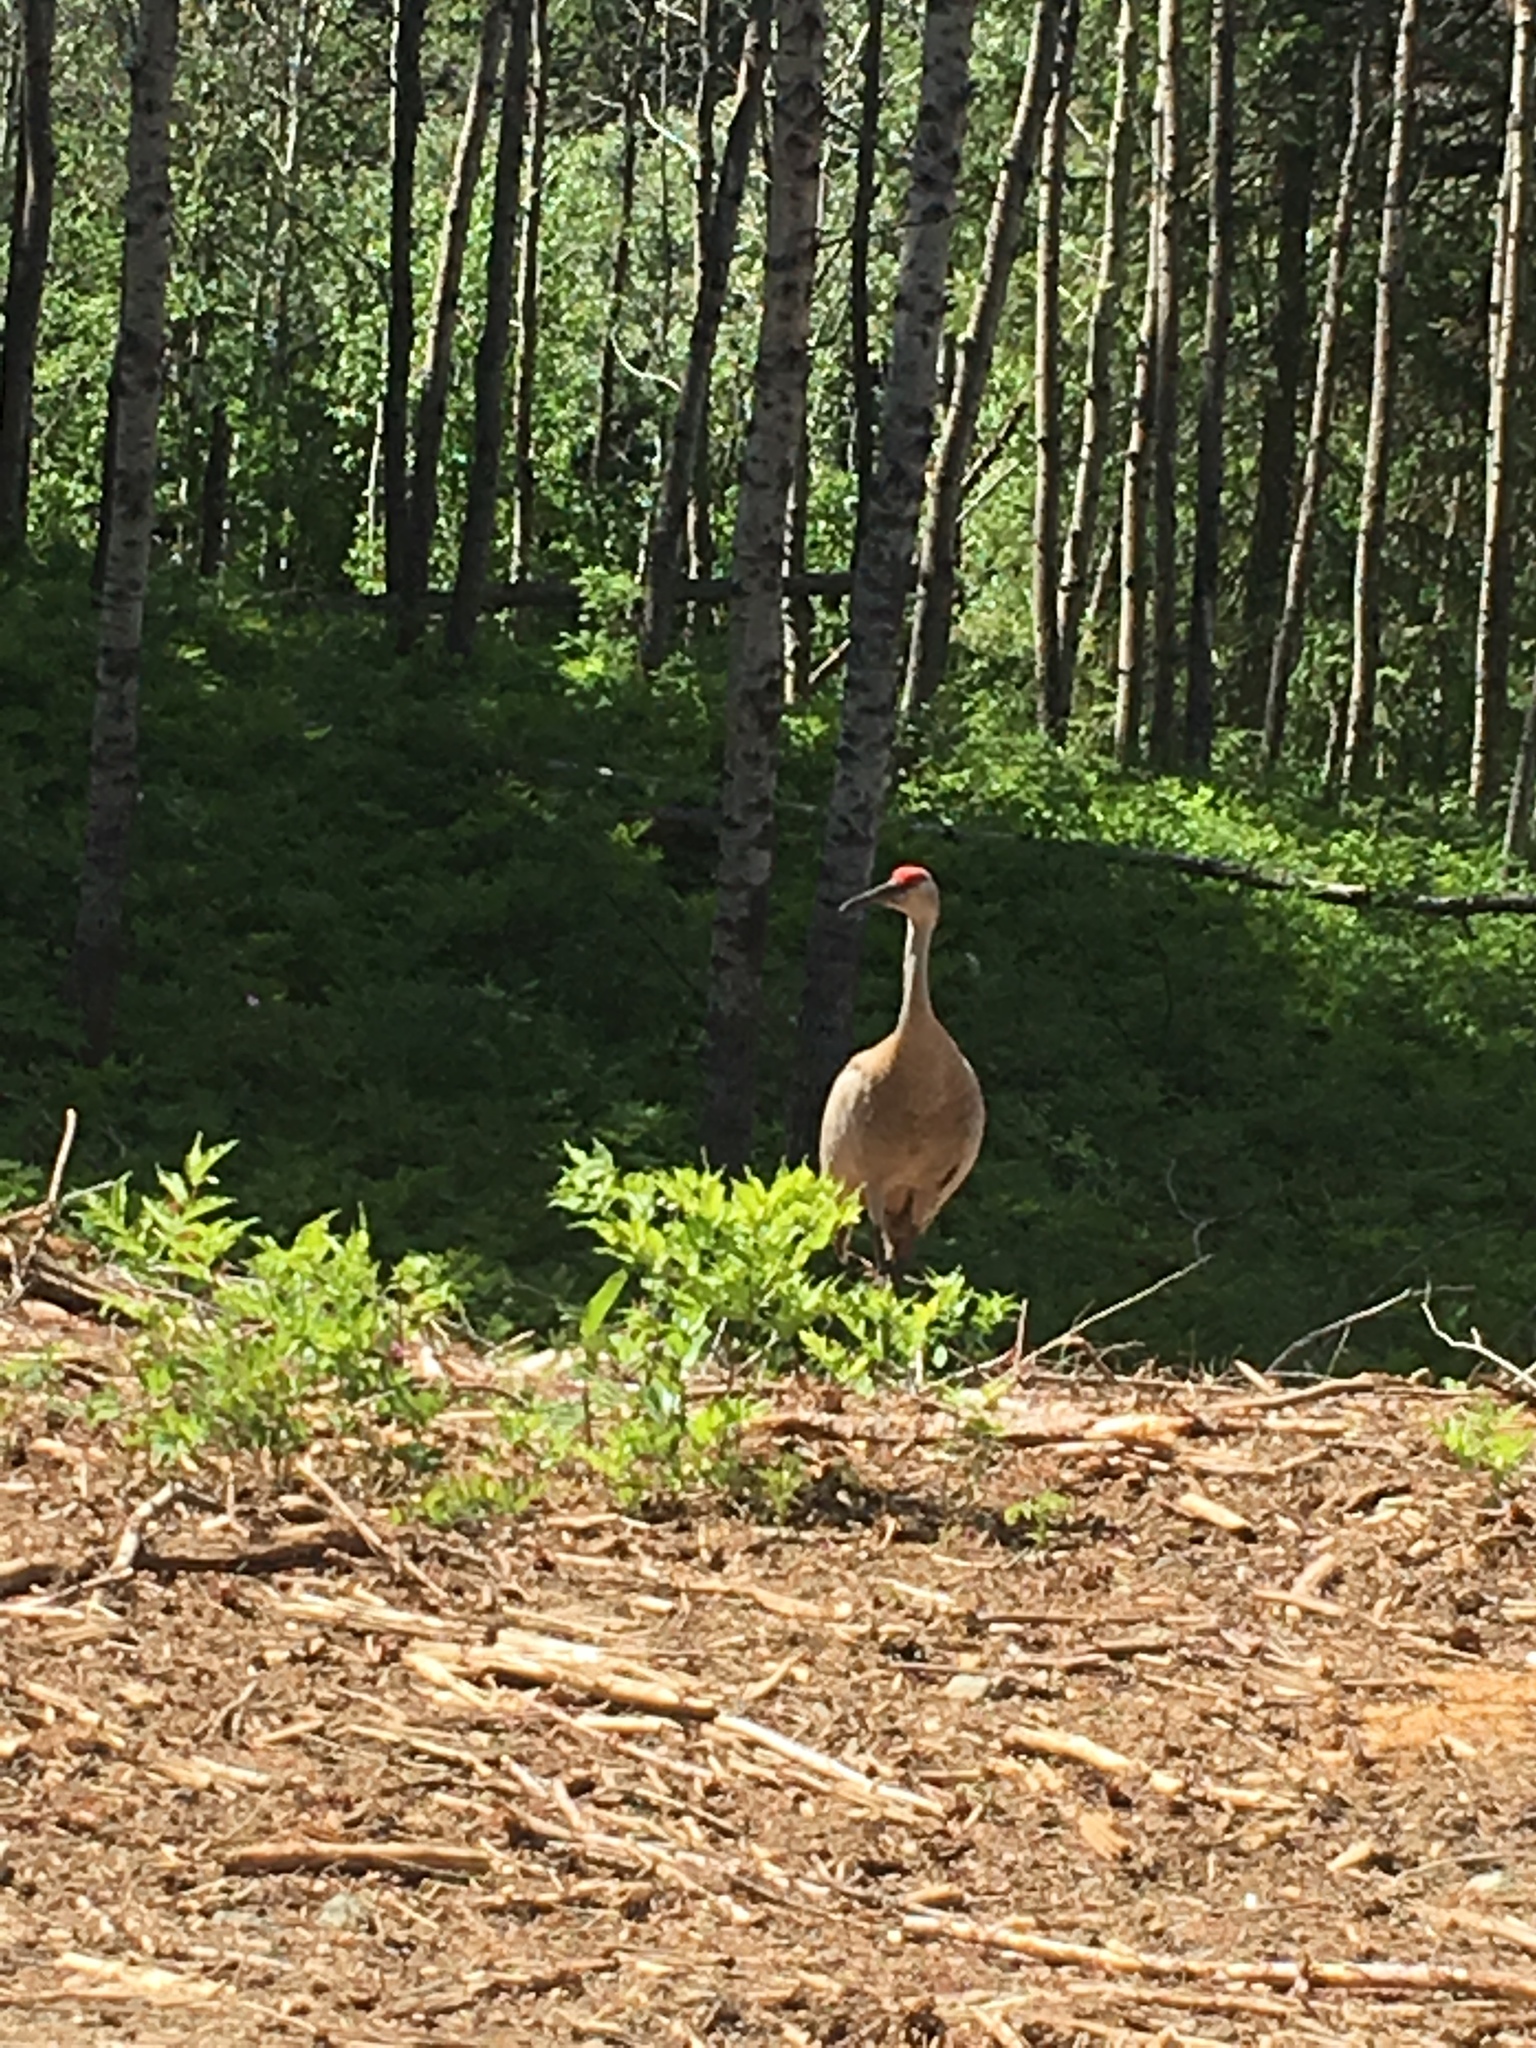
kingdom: Animalia
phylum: Chordata
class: Aves
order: Gruiformes
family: Gruidae
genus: Grus
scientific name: Grus canadensis
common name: Sandhill crane
